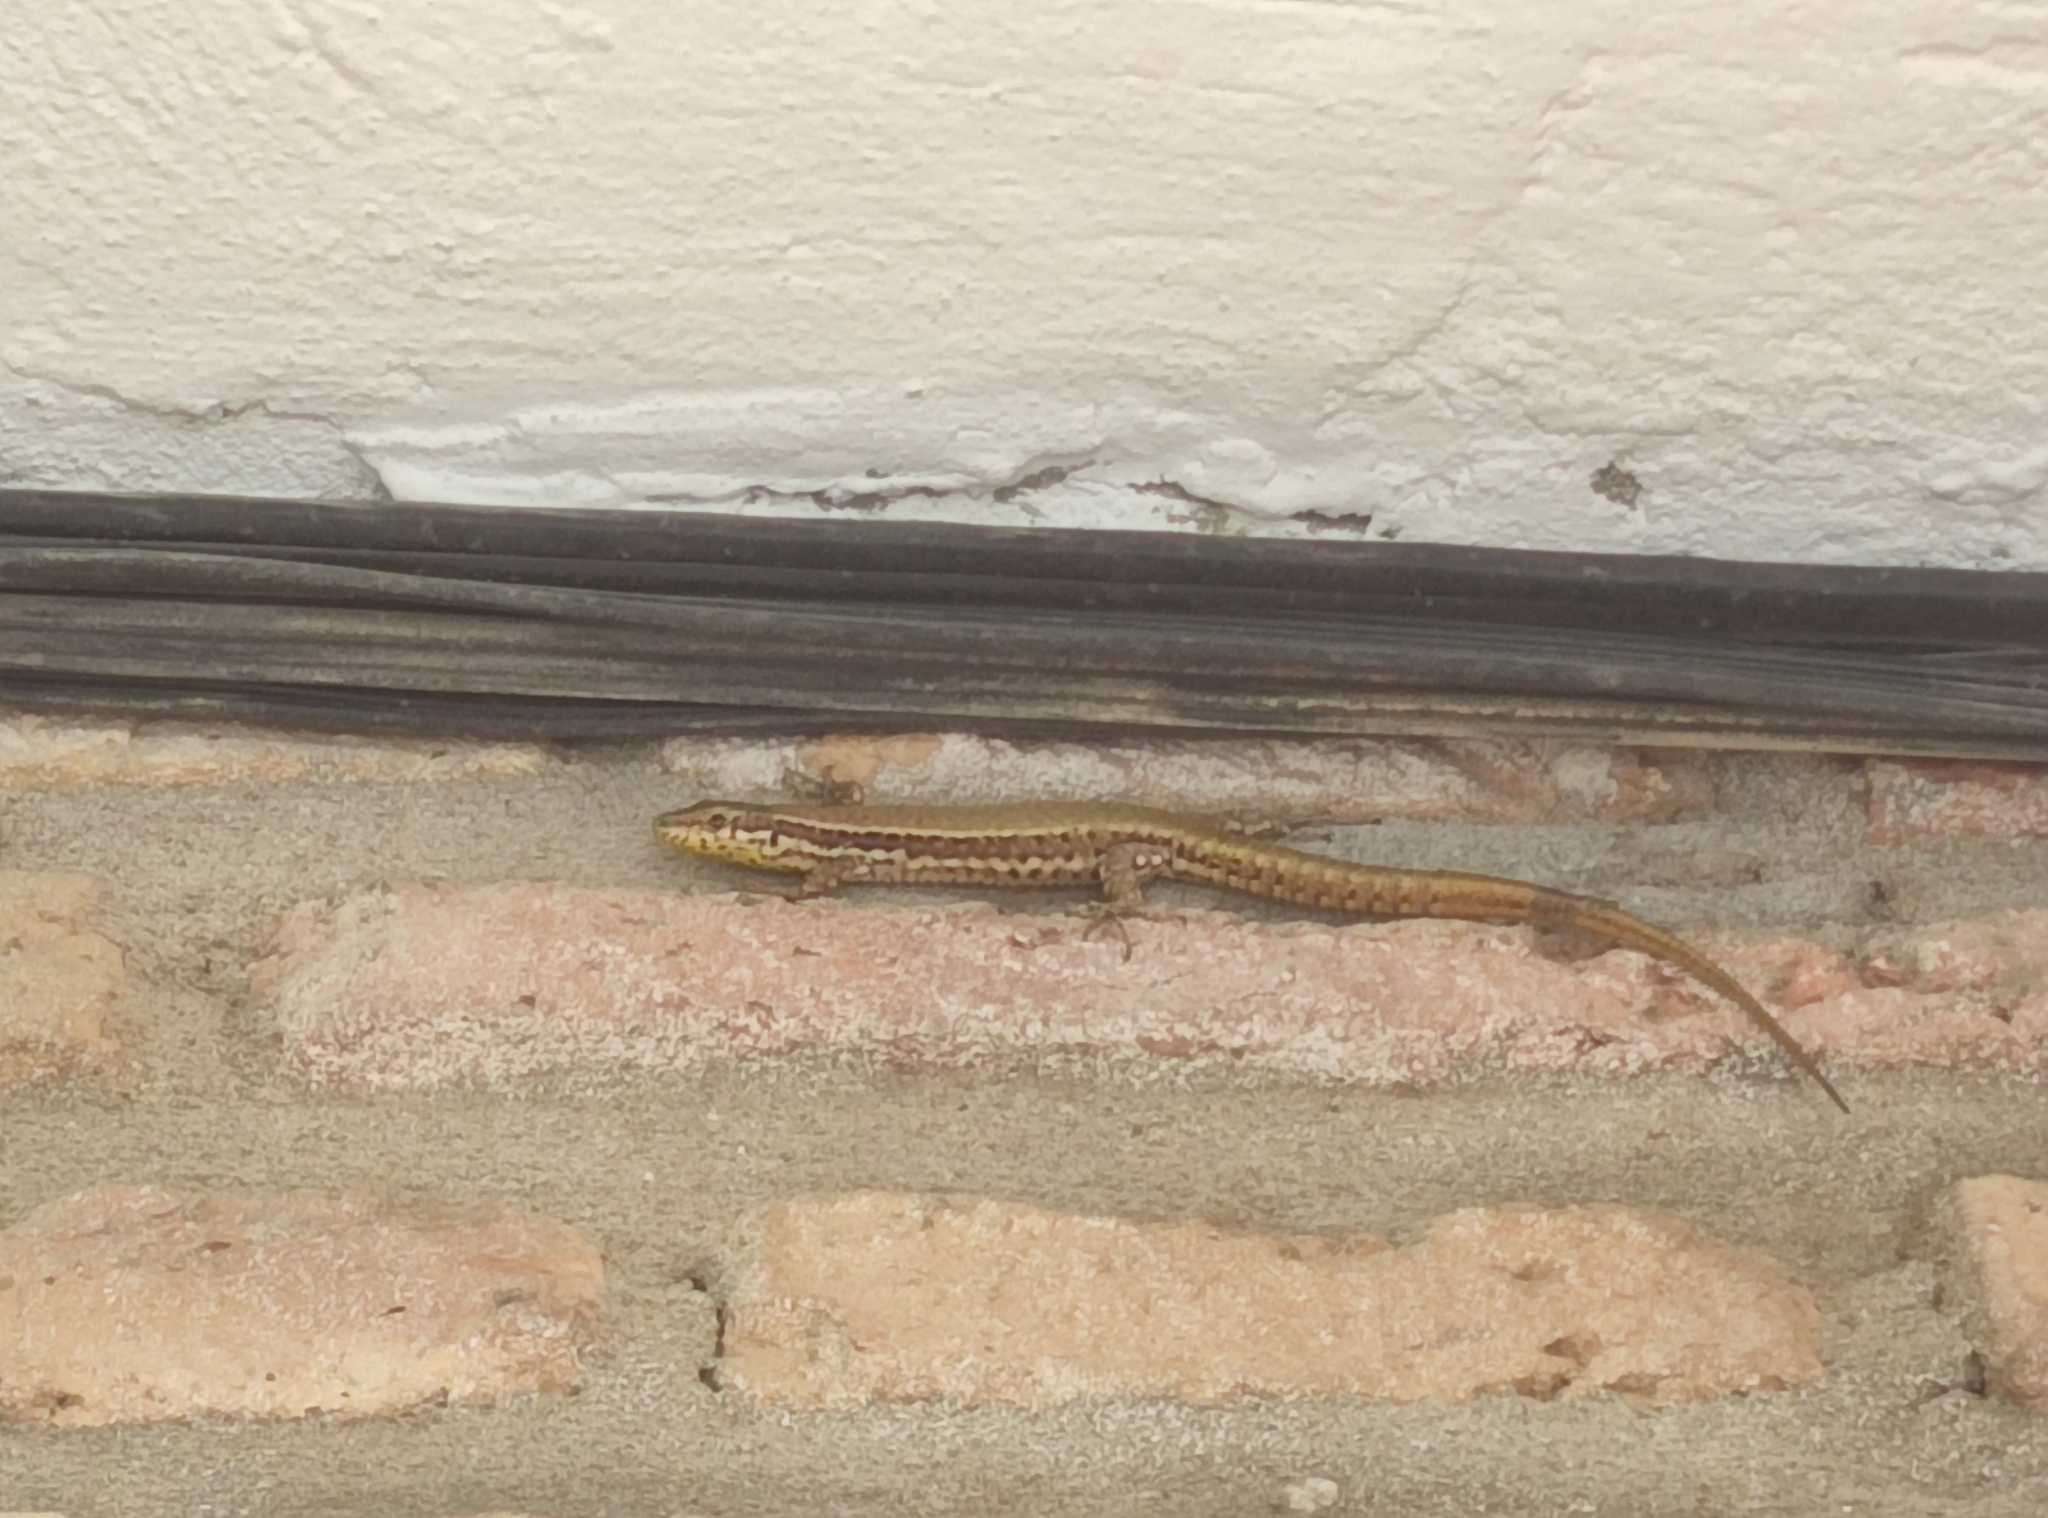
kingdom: Animalia
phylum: Chordata
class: Squamata
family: Lacertidae
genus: Podarcis
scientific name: Podarcis vaucheri
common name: Vaucher's wall lizard
